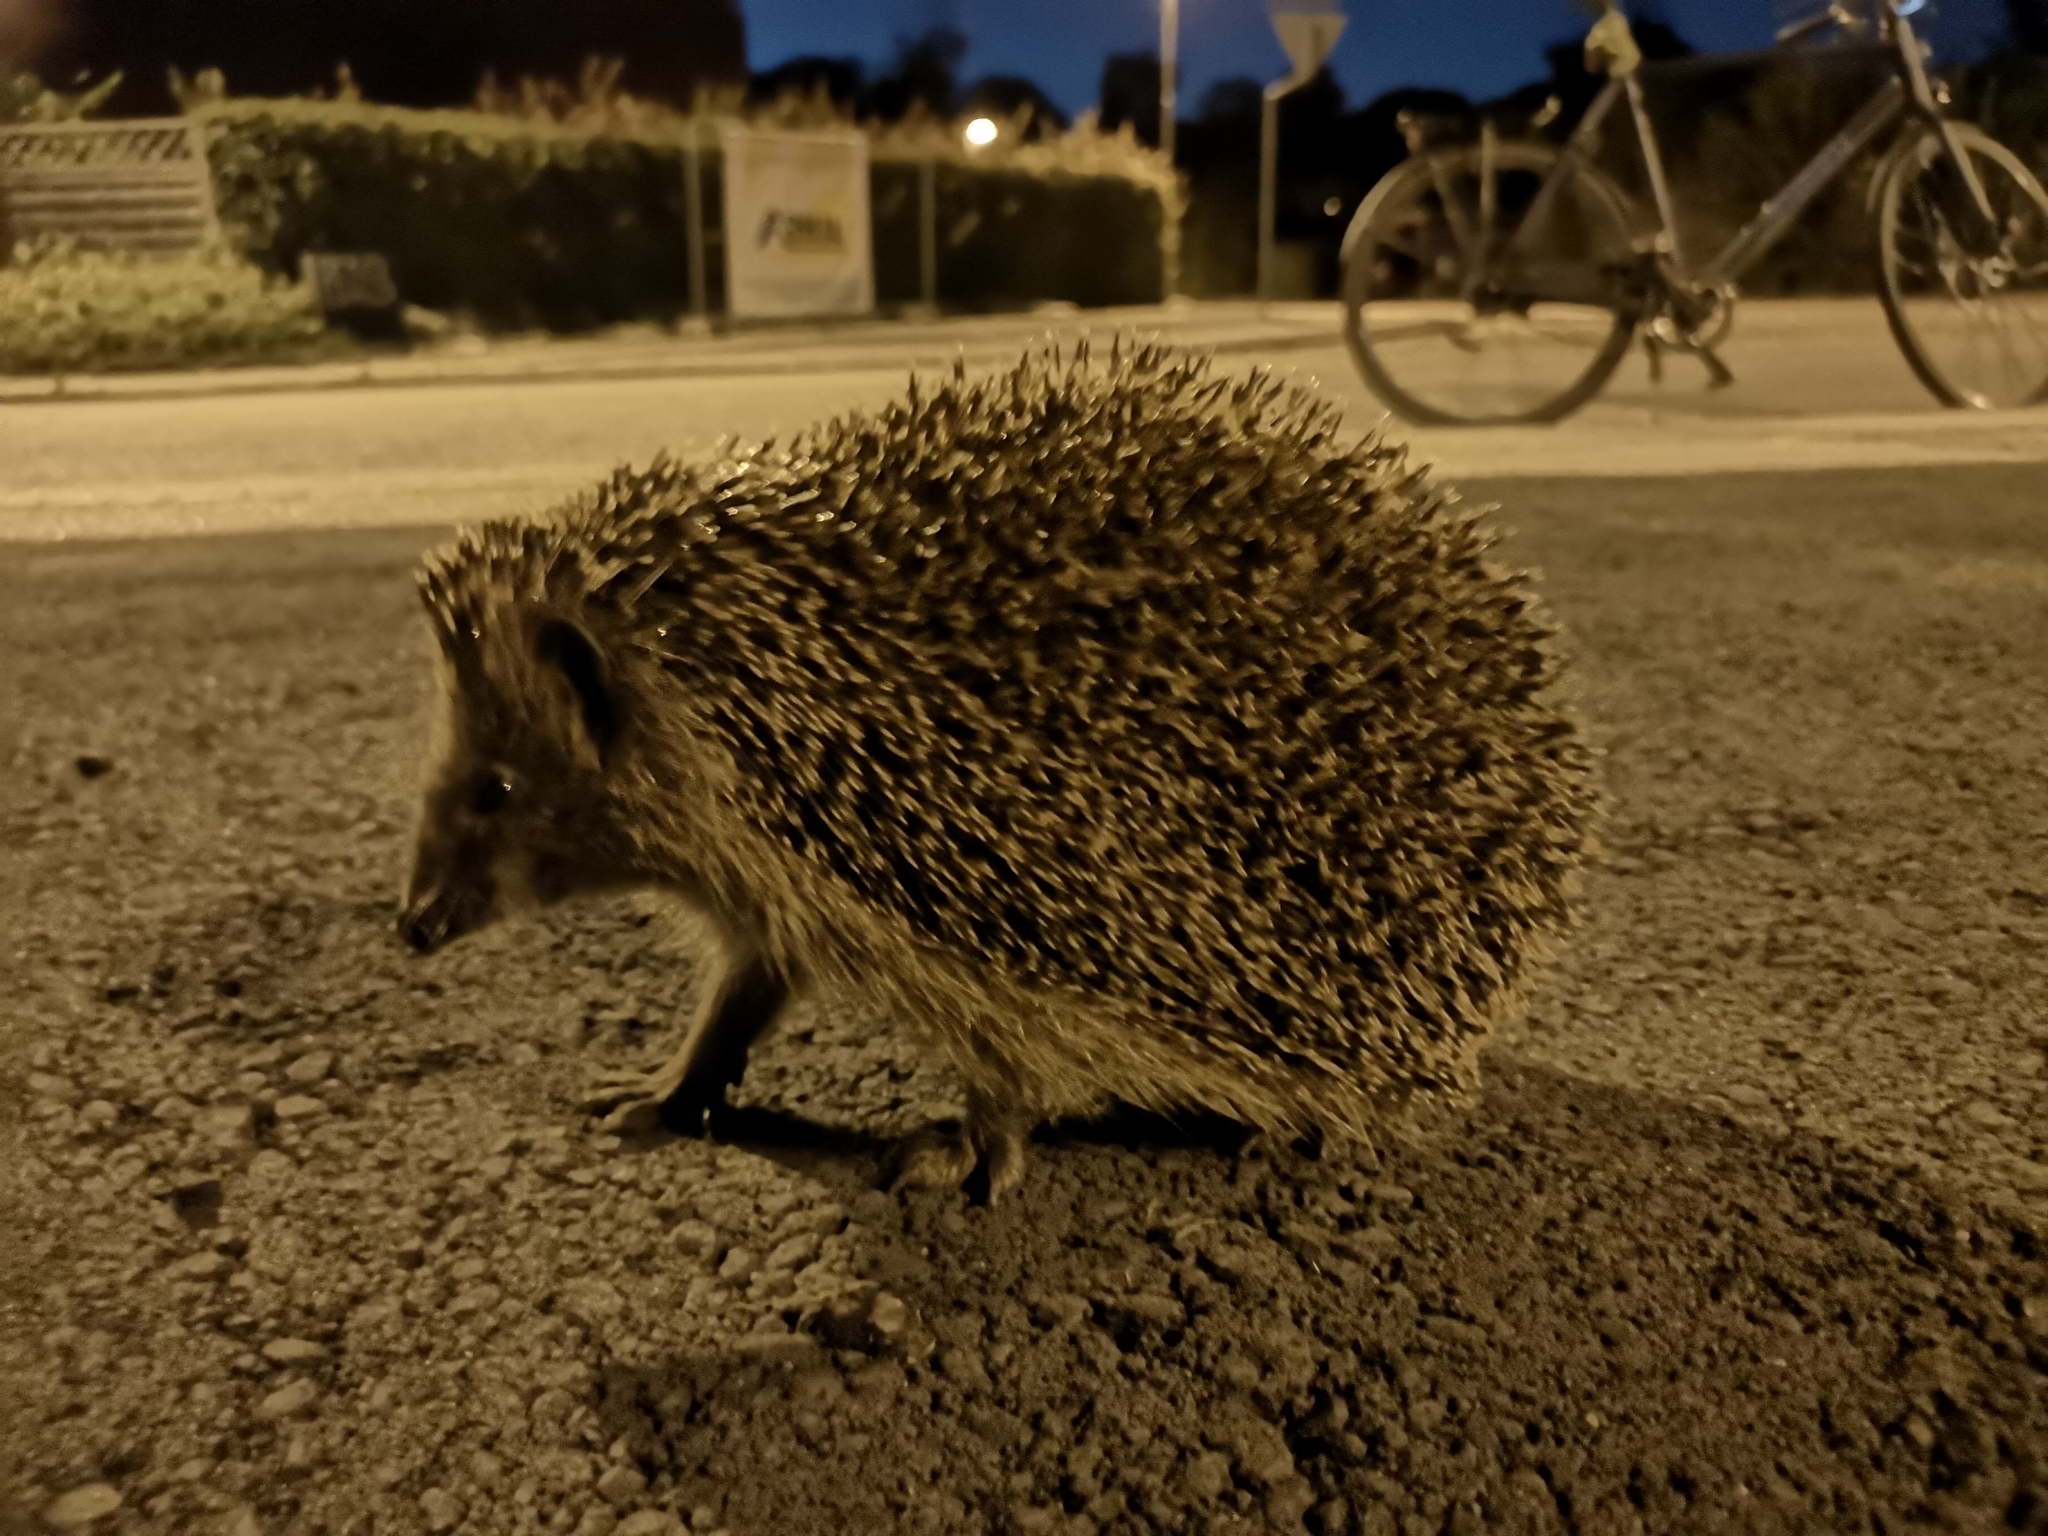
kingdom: Animalia
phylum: Chordata
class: Mammalia
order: Erinaceomorpha
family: Erinaceidae
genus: Erinaceus
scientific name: Erinaceus europaeus
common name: West european hedgehog
